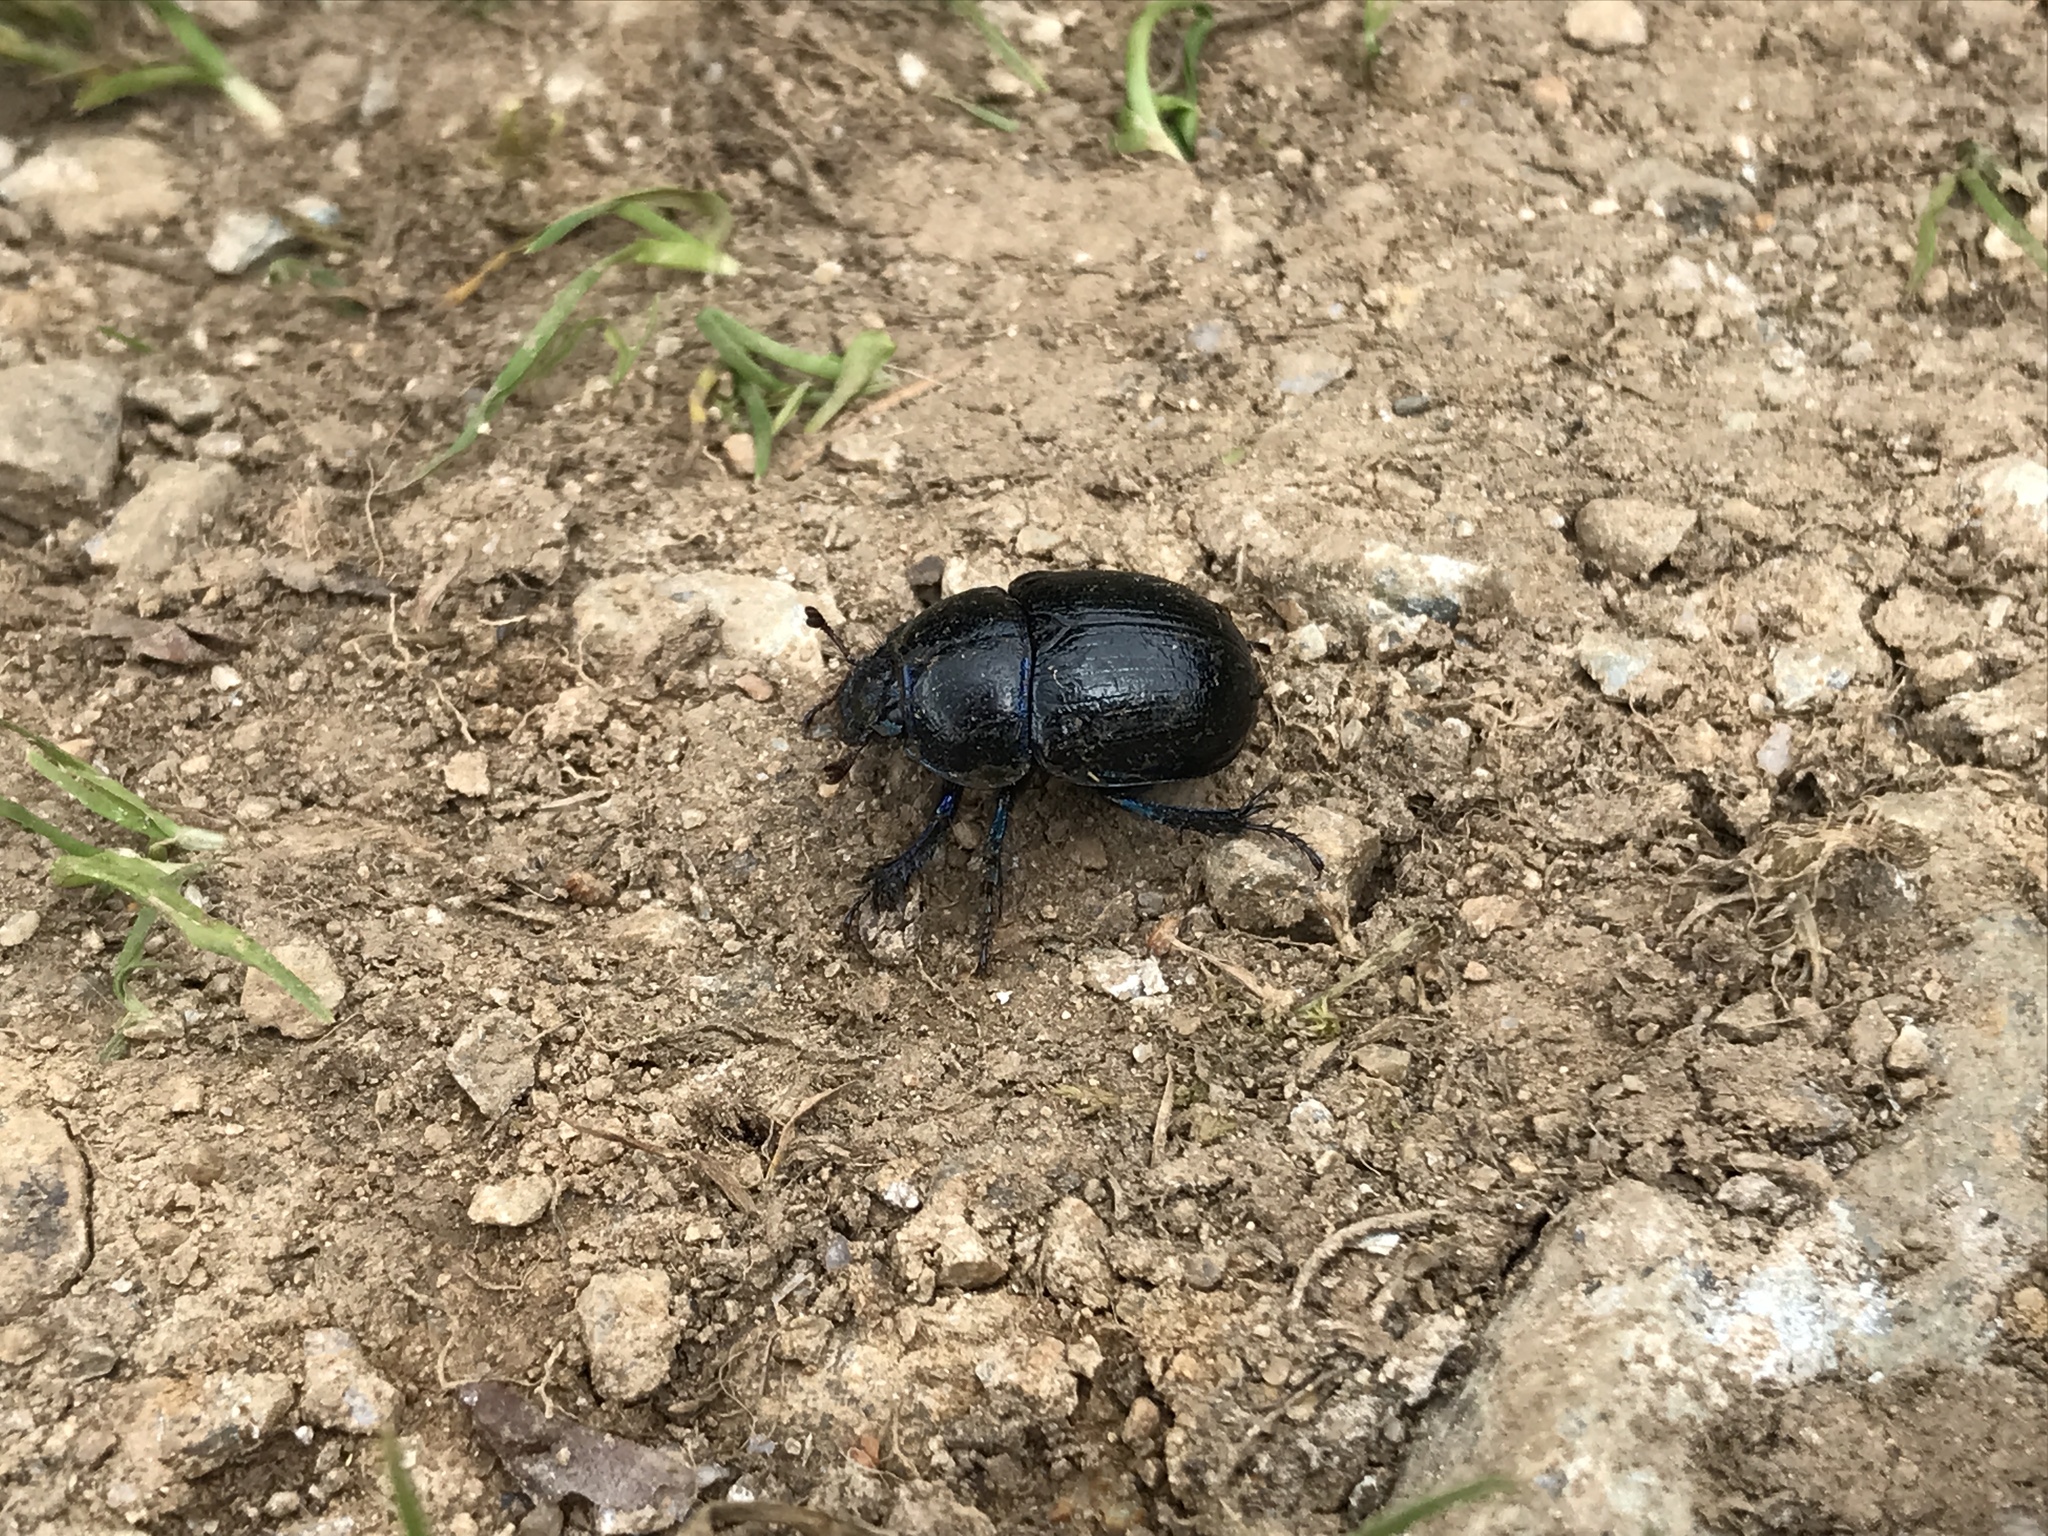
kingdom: Animalia
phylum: Arthropoda
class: Insecta
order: Coleoptera
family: Geotrupidae
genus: Anoplotrupes
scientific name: Anoplotrupes stercorosus
